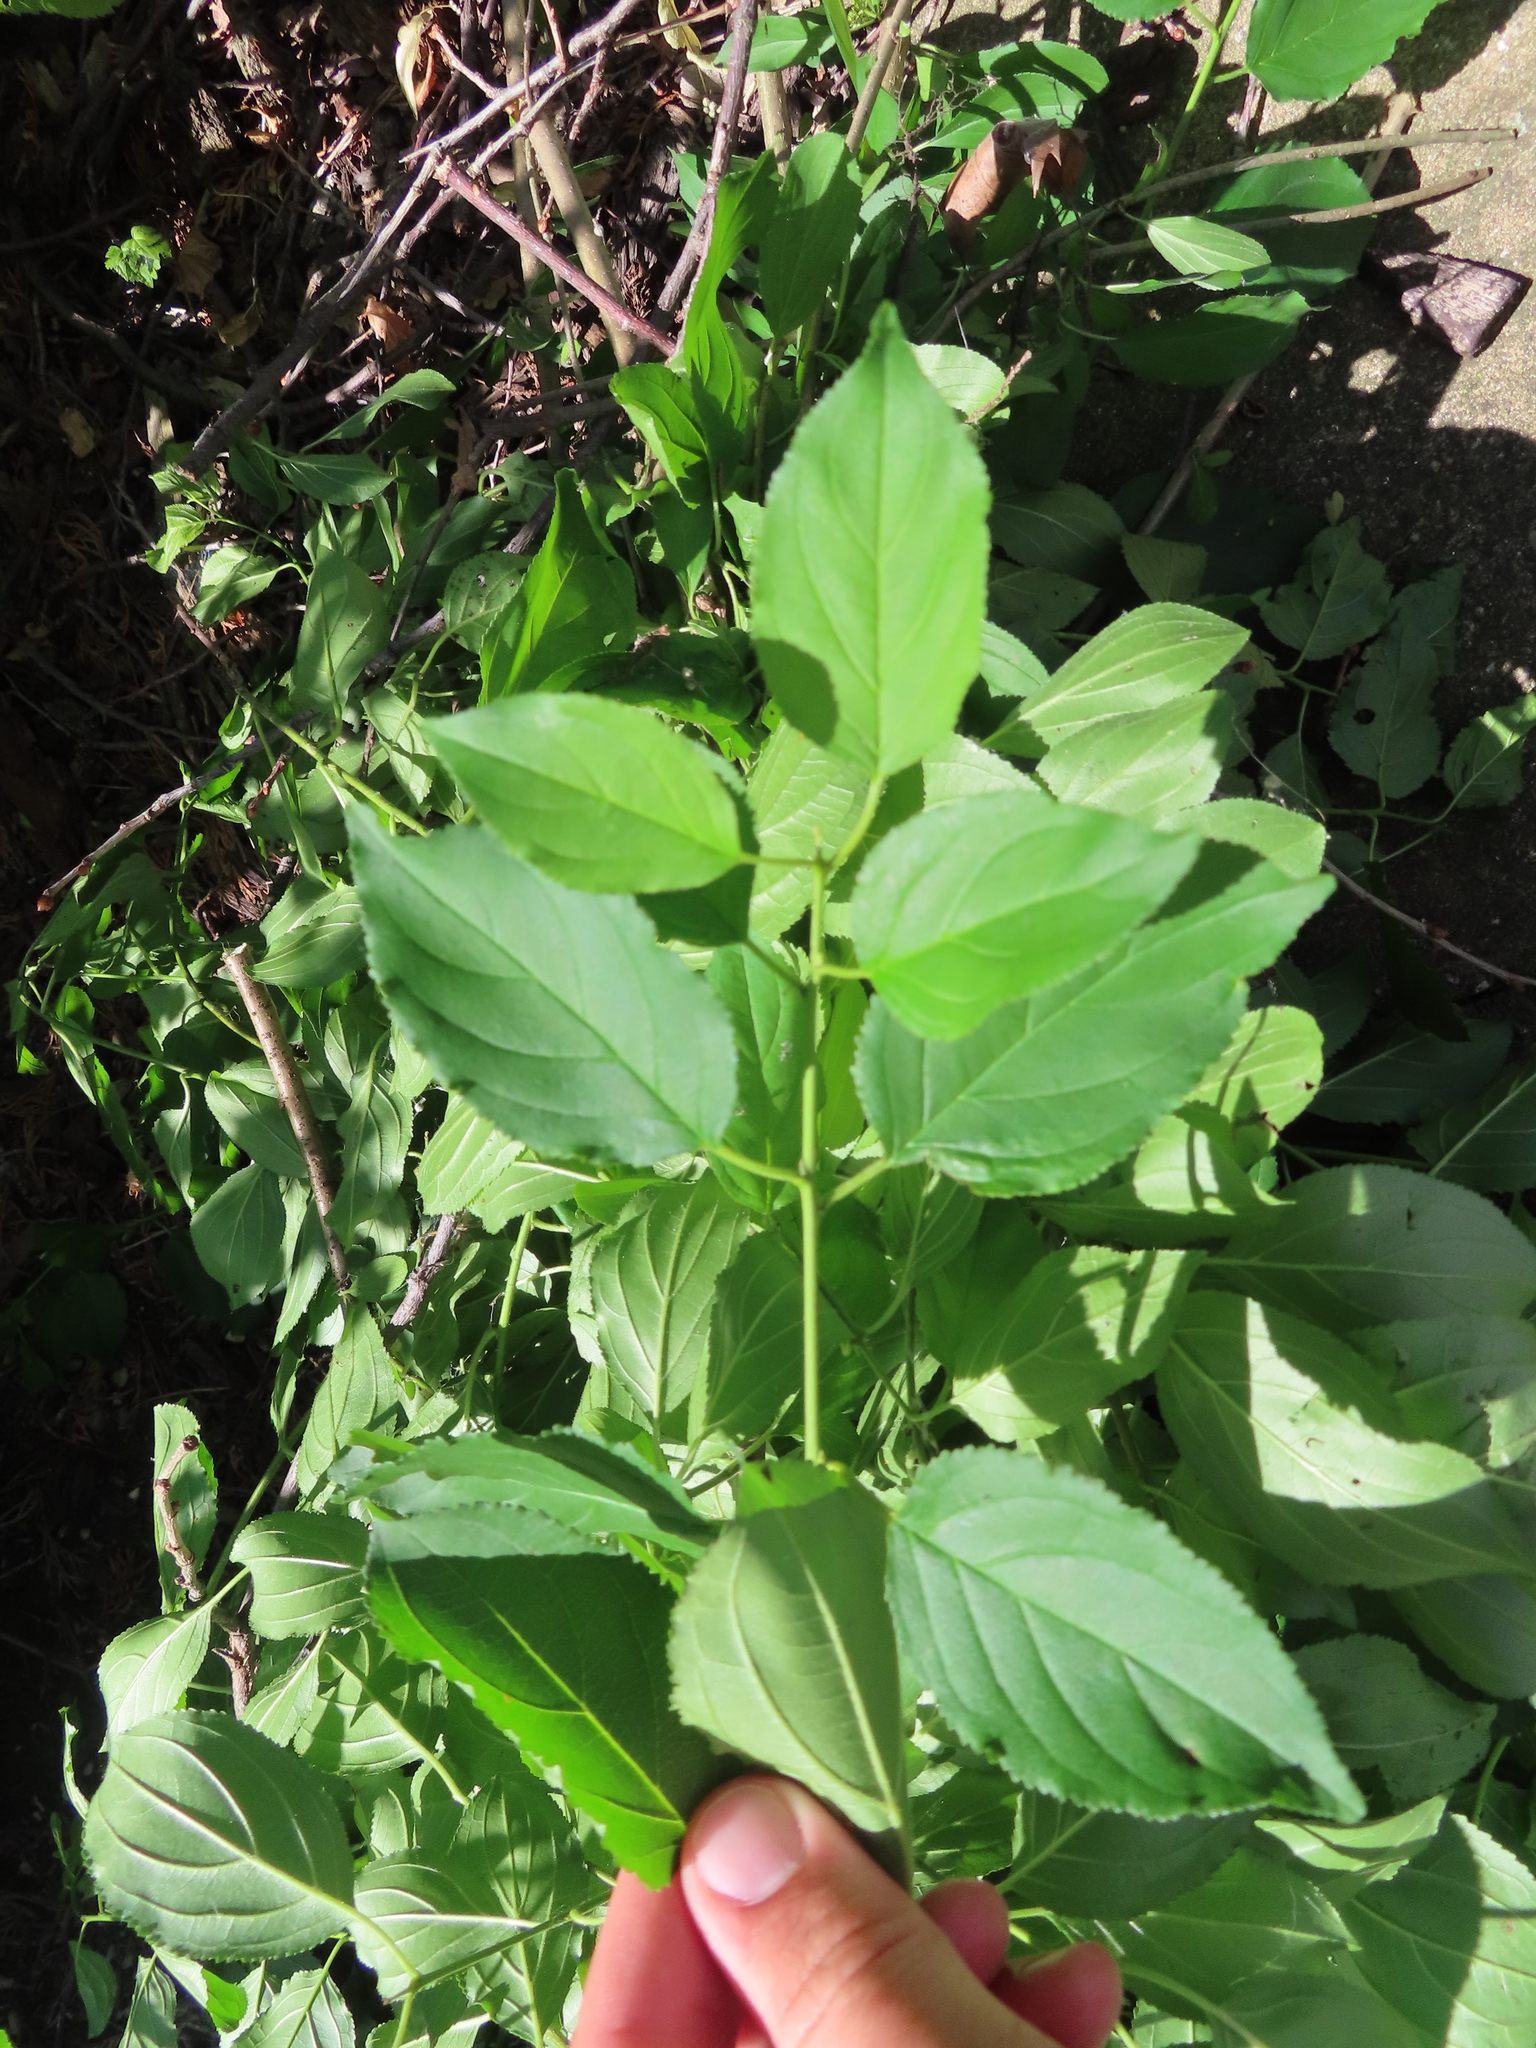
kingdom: Plantae
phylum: Tracheophyta
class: Magnoliopsida
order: Rosales
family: Rhamnaceae
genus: Rhamnus
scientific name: Rhamnus cathartica
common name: Common buckthorn
